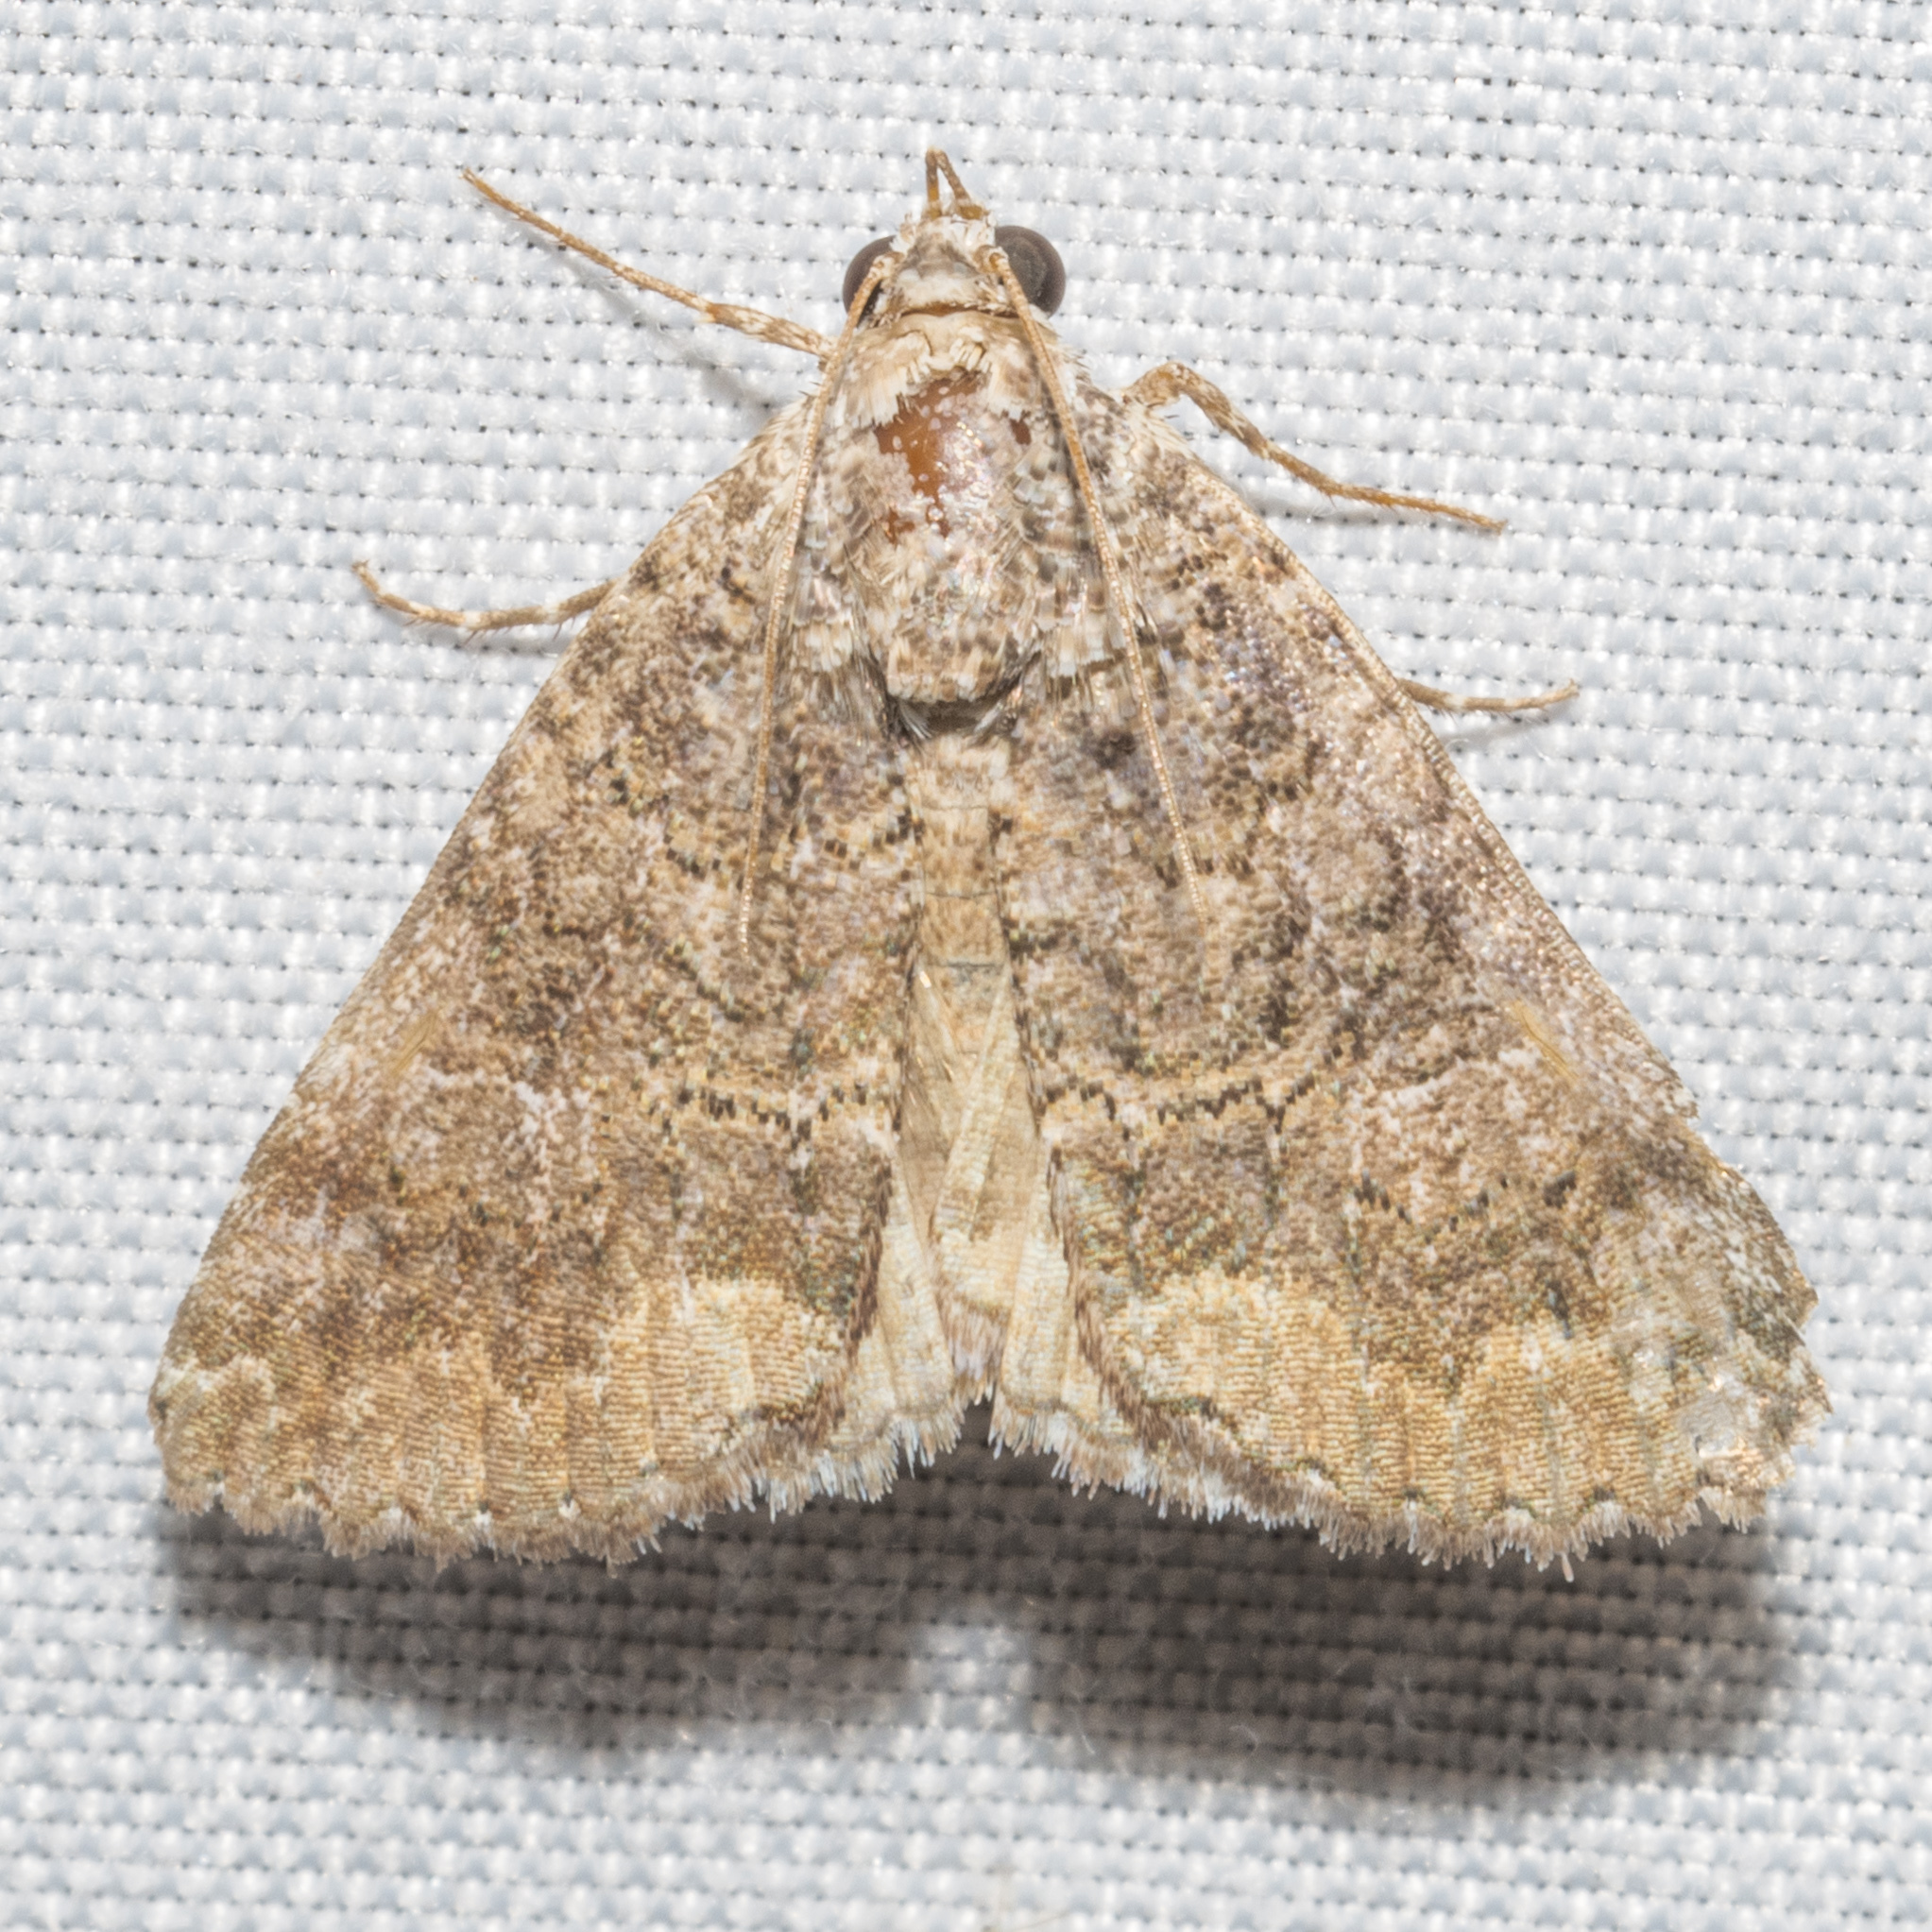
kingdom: Animalia
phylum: Arthropoda
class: Insecta
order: Lepidoptera
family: Erebidae
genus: Eubolina
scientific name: Eubolina impartialis
